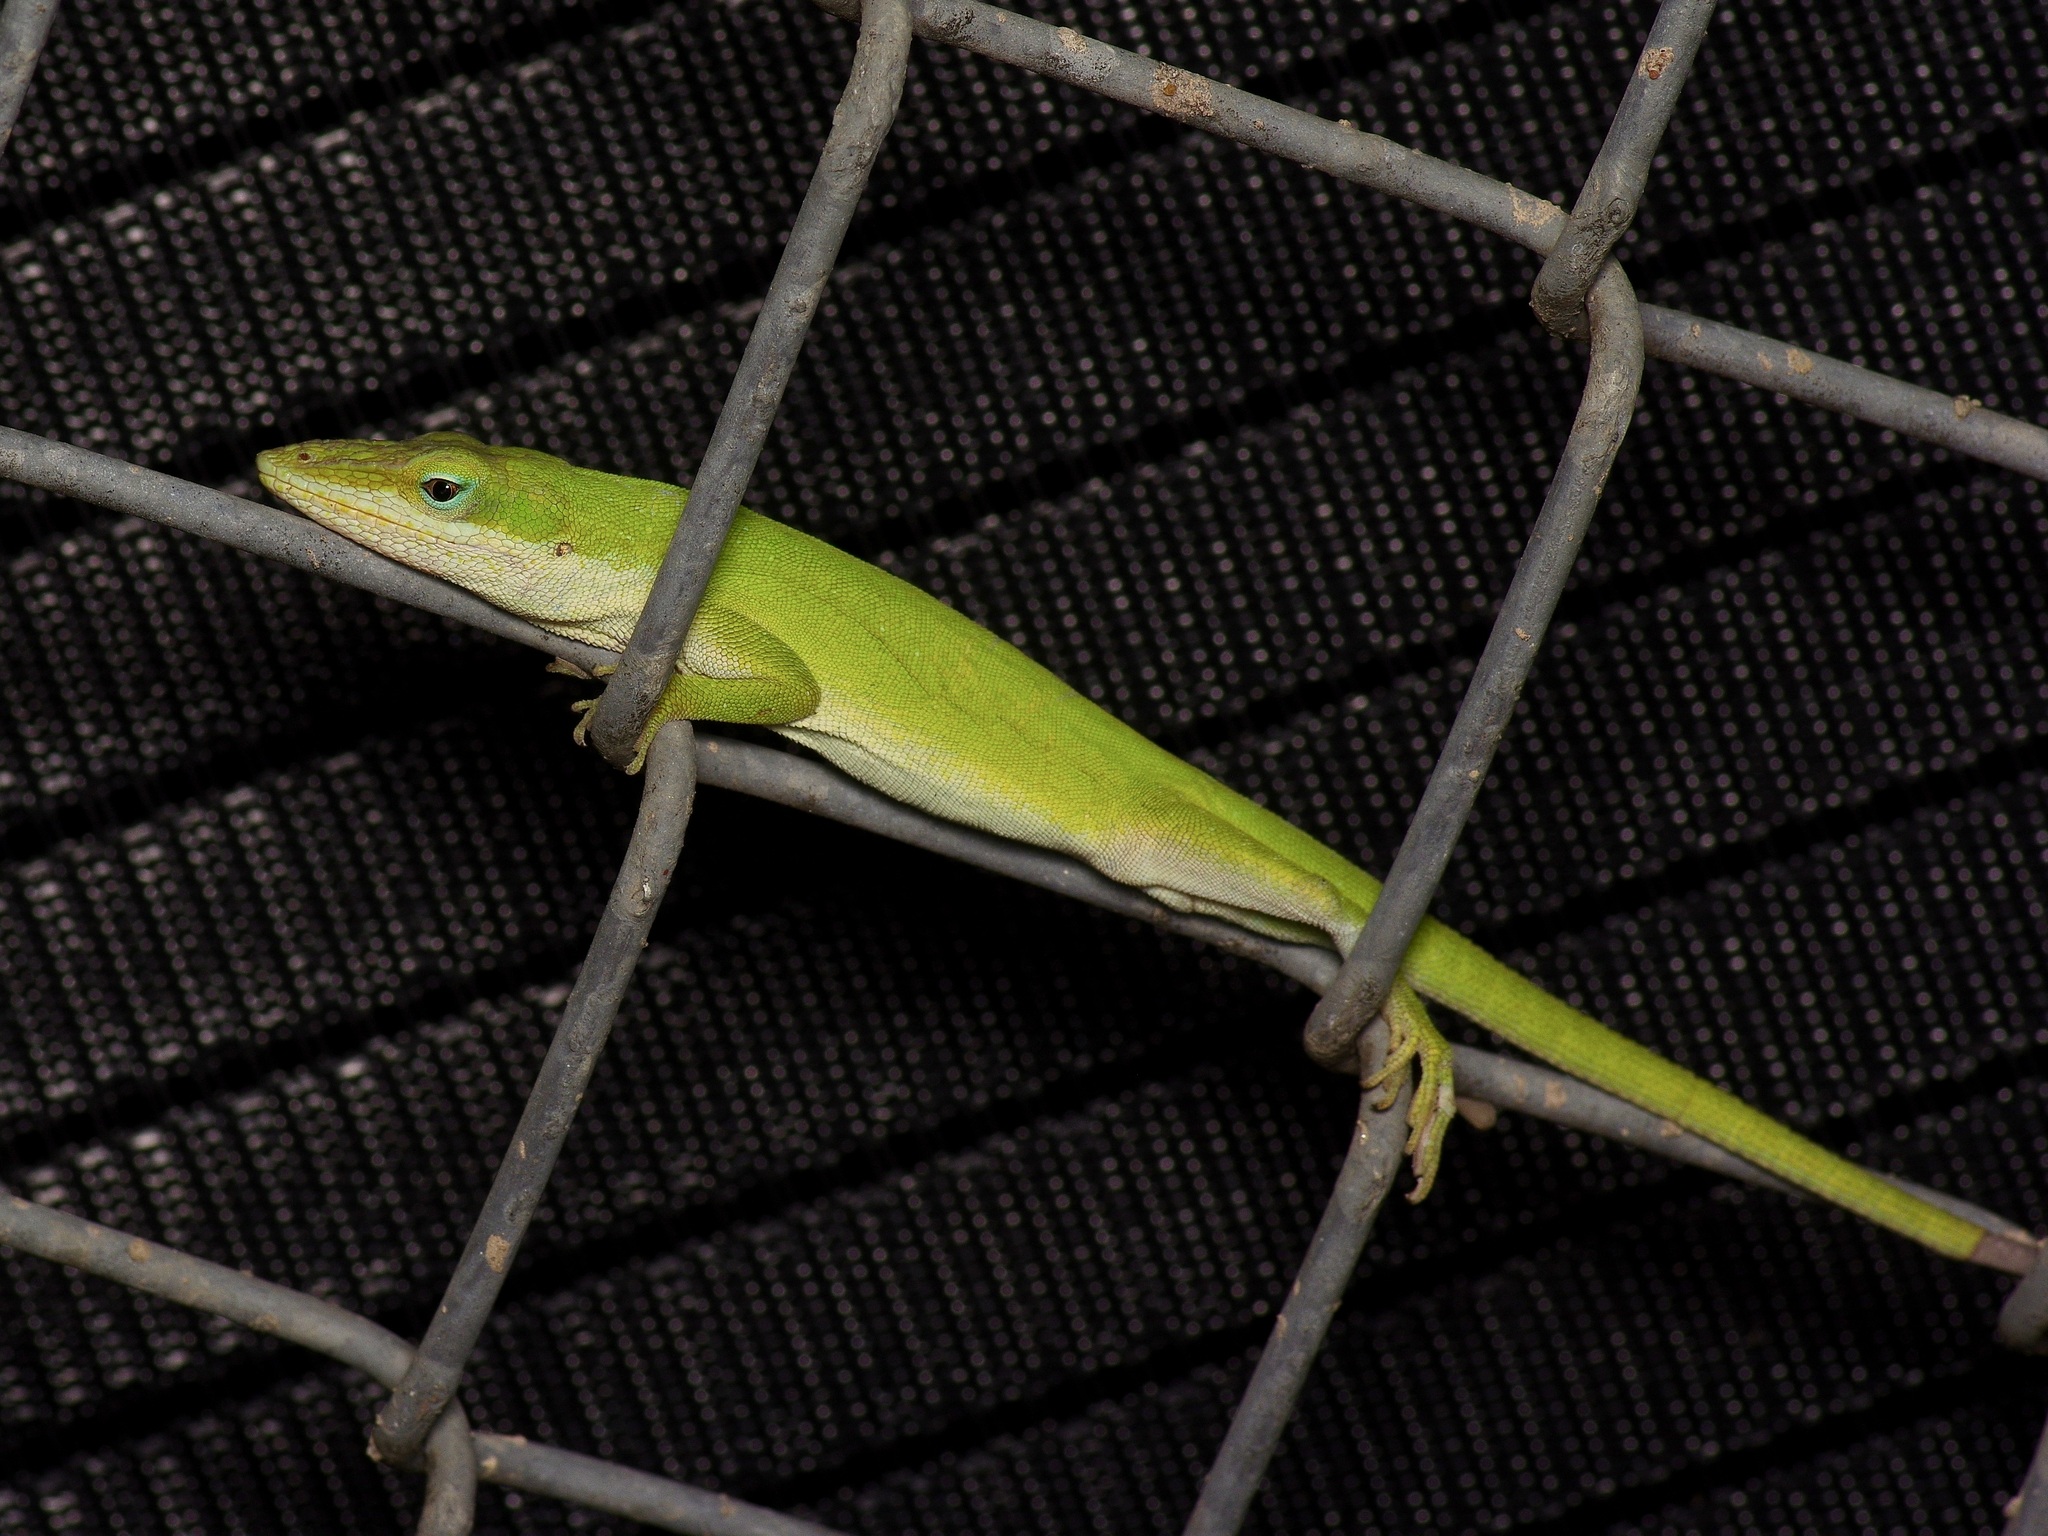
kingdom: Animalia
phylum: Chordata
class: Squamata
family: Dactyloidae
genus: Anolis
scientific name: Anolis carolinensis
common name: Green anole
